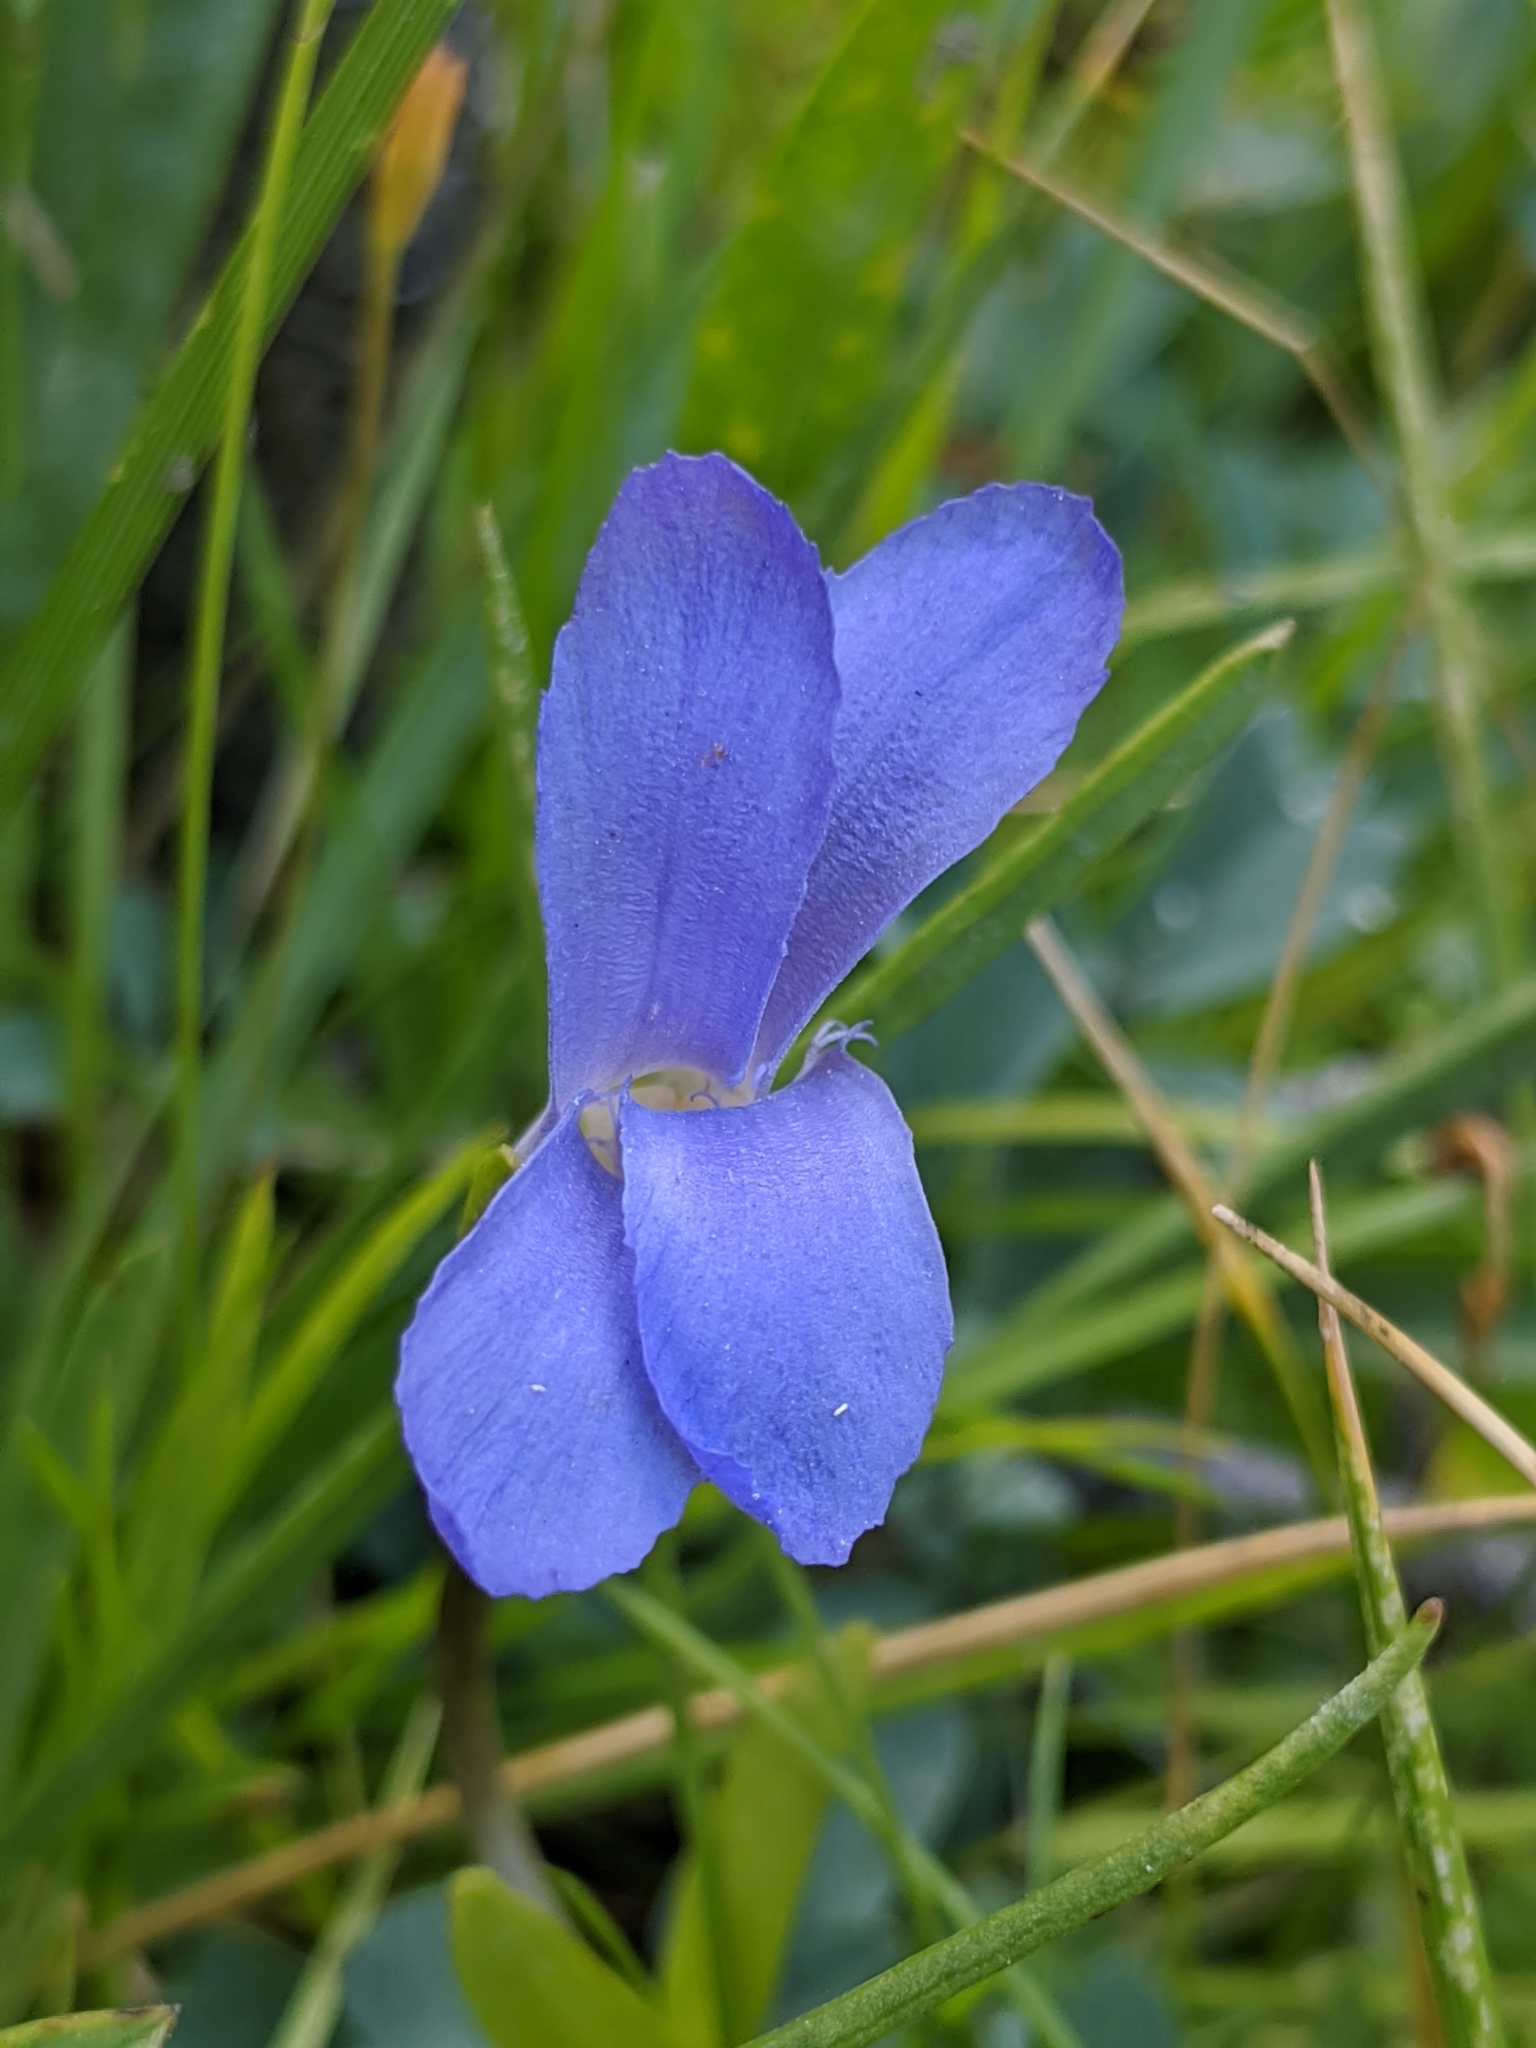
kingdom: Plantae
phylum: Tracheophyta
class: Magnoliopsida
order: Gentianales
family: Gentianaceae
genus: Gentianopsis
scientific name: Gentianopsis simplex
